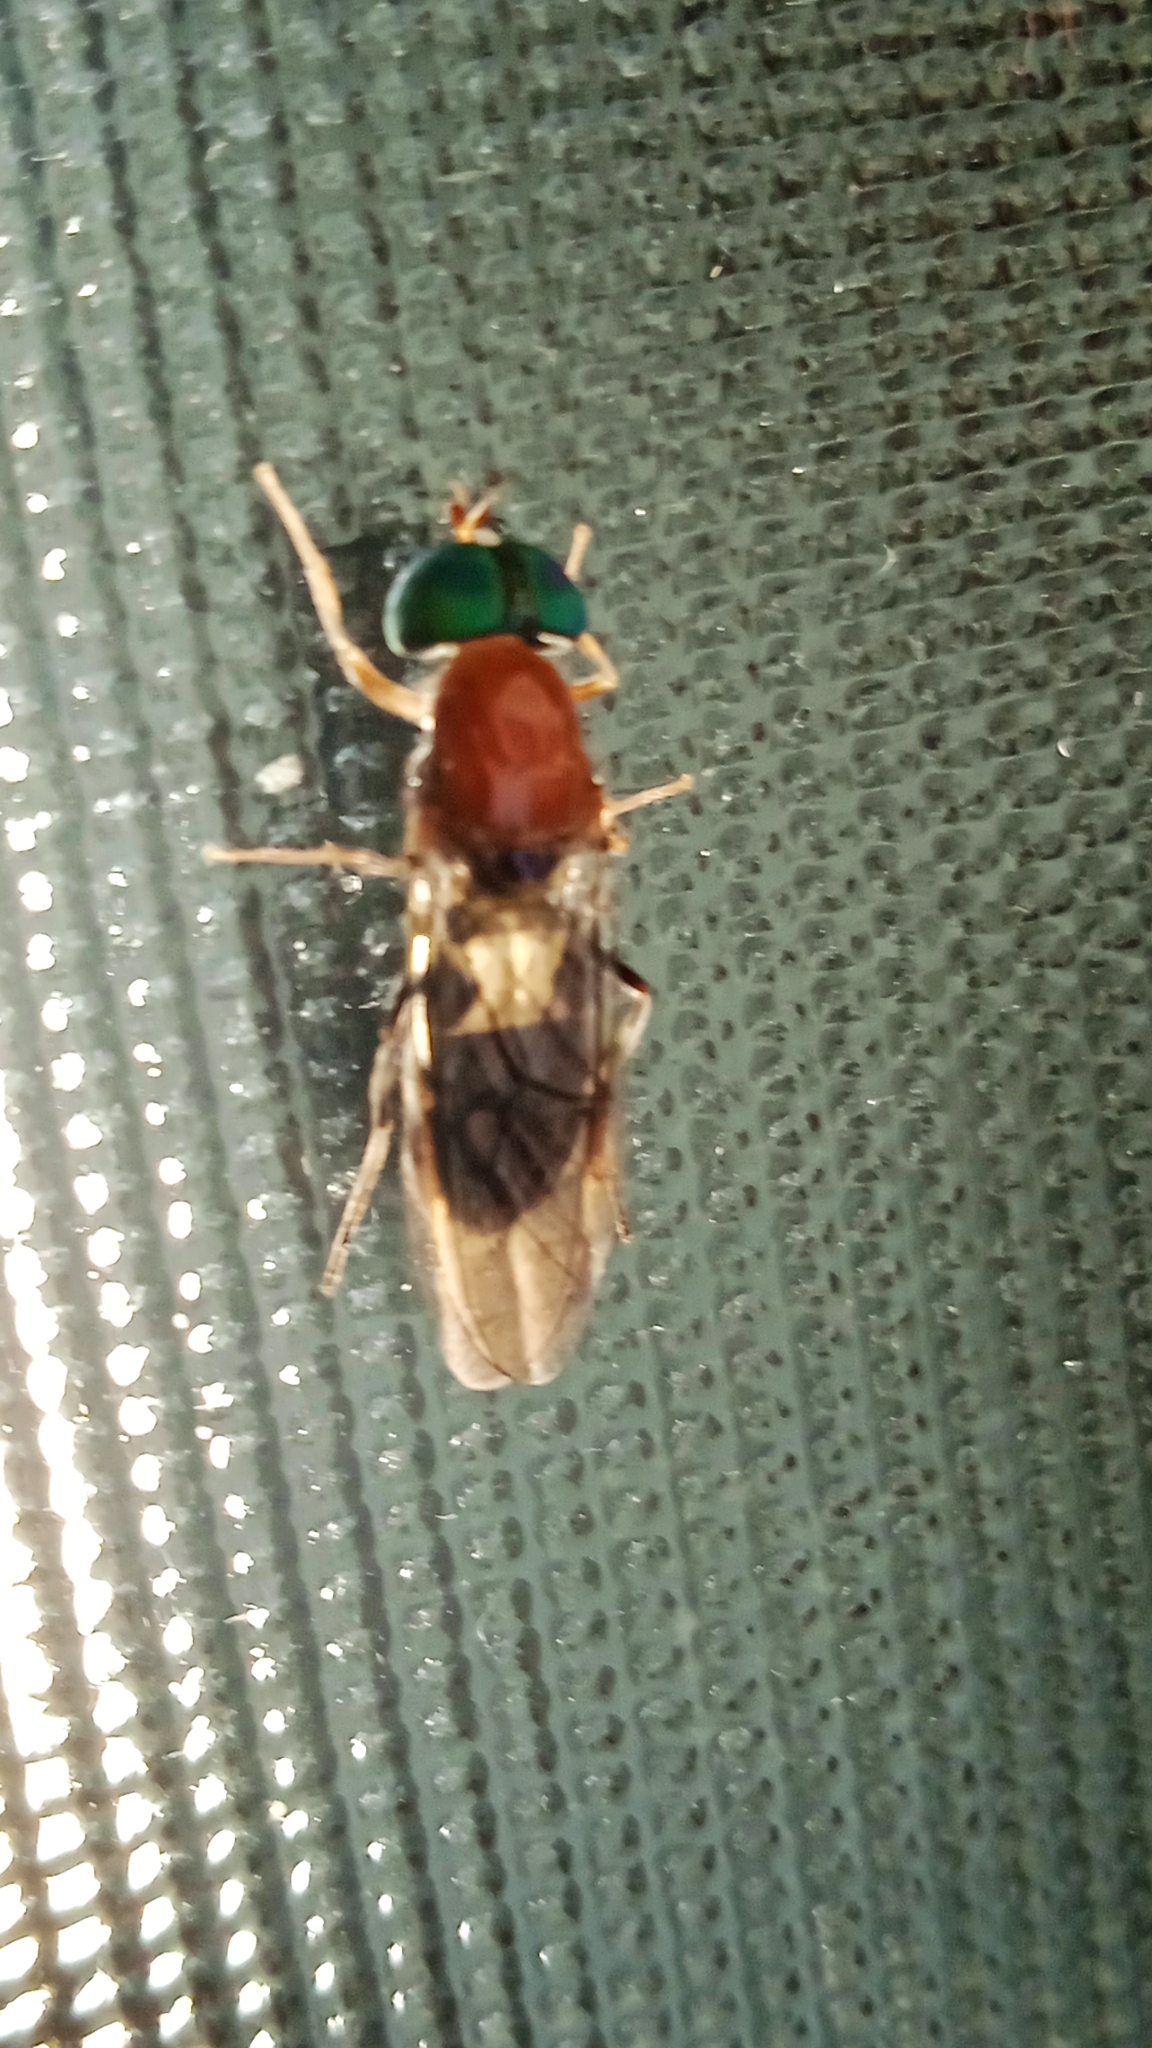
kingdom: Animalia
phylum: Arthropoda
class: Insecta
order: Diptera
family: Stratiomyidae
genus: Sargus
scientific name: Sargus thoracicus
